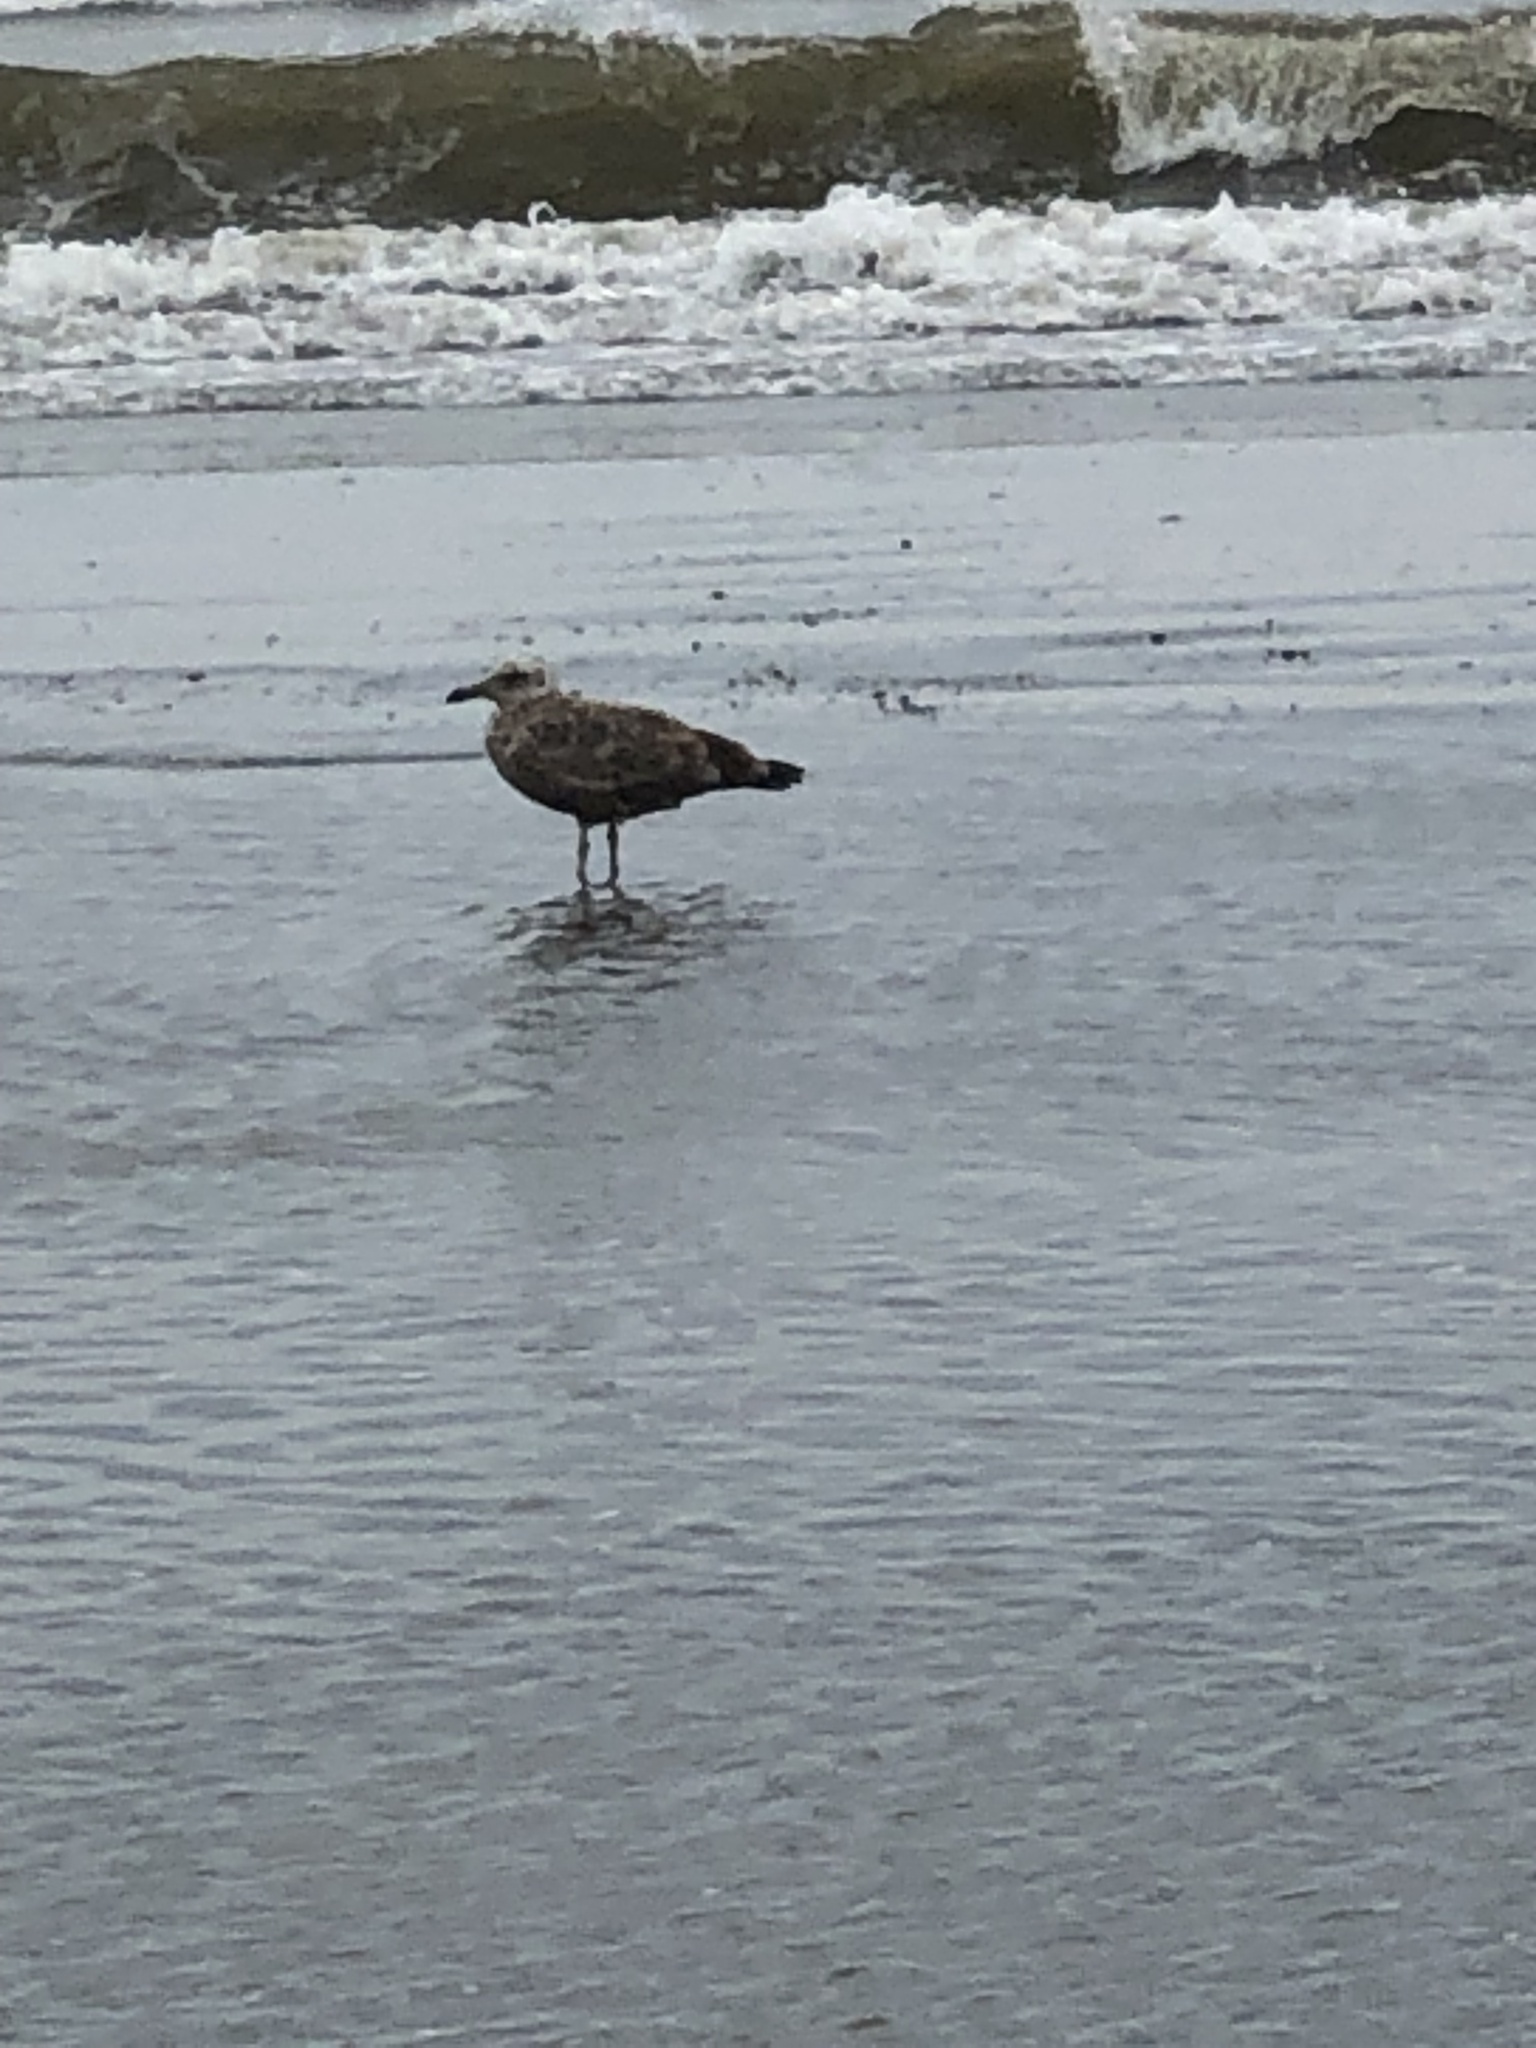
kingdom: Animalia
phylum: Chordata
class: Aves
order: Charadriiformes
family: Laridae
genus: Larus
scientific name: Larus argentatus
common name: Herring gull
